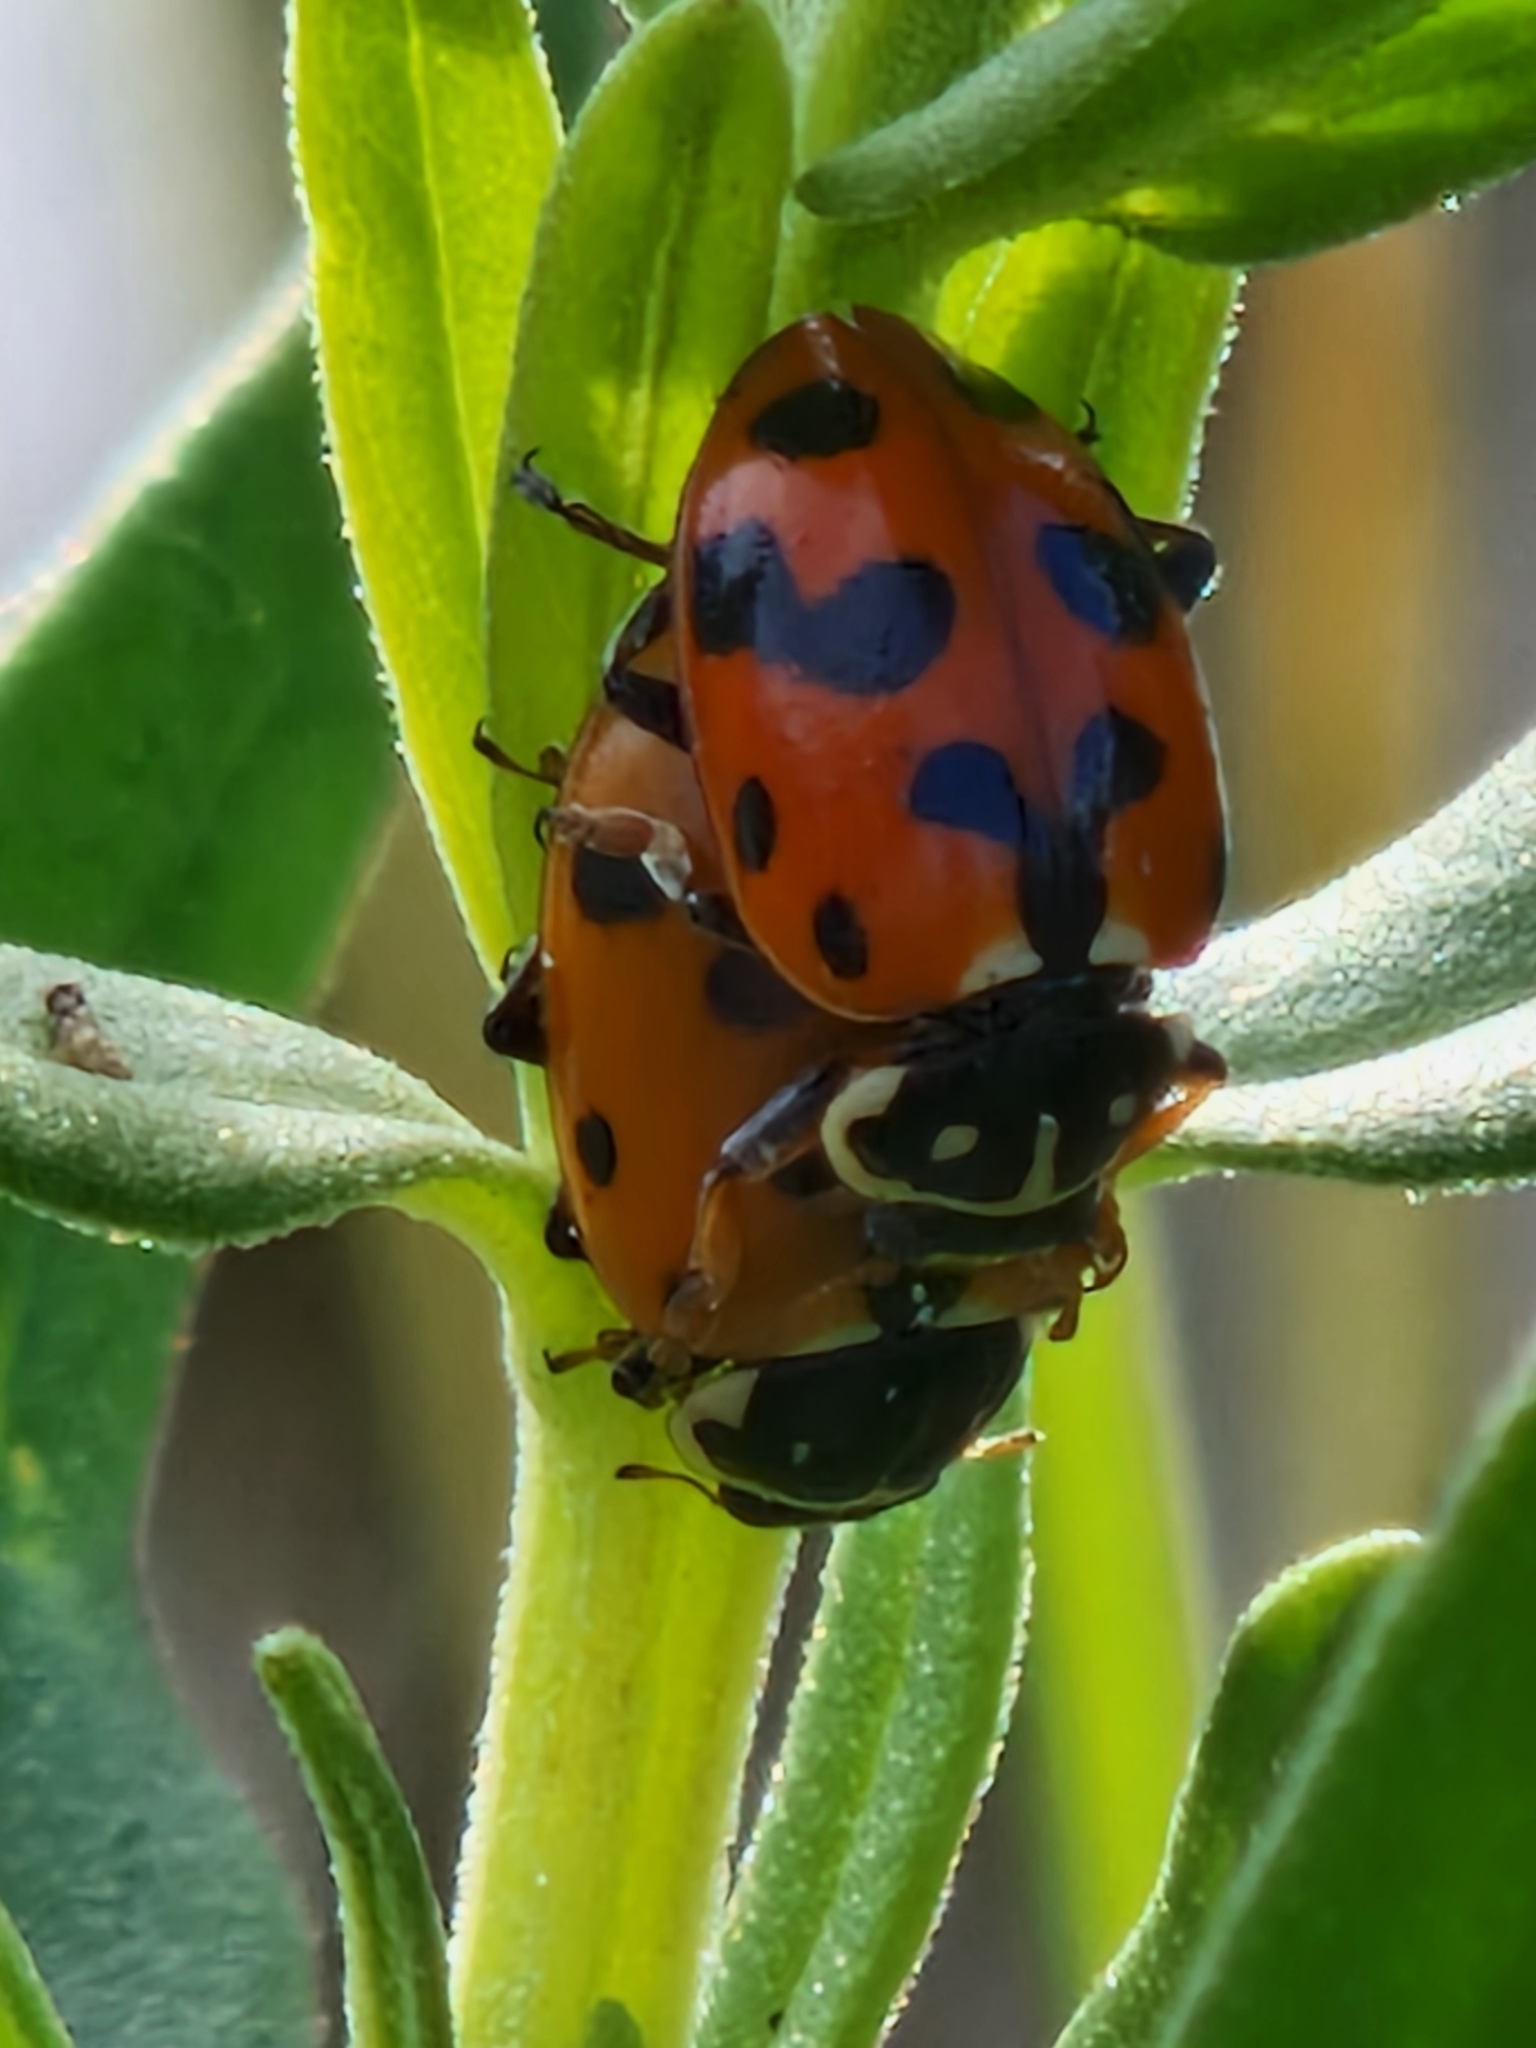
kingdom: Animalia
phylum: Arthropoda
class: Insecta
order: Coleoptera
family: Coccinellidae
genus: Hippodamia
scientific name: Hippodamia variegata
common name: Ladybird beetle
